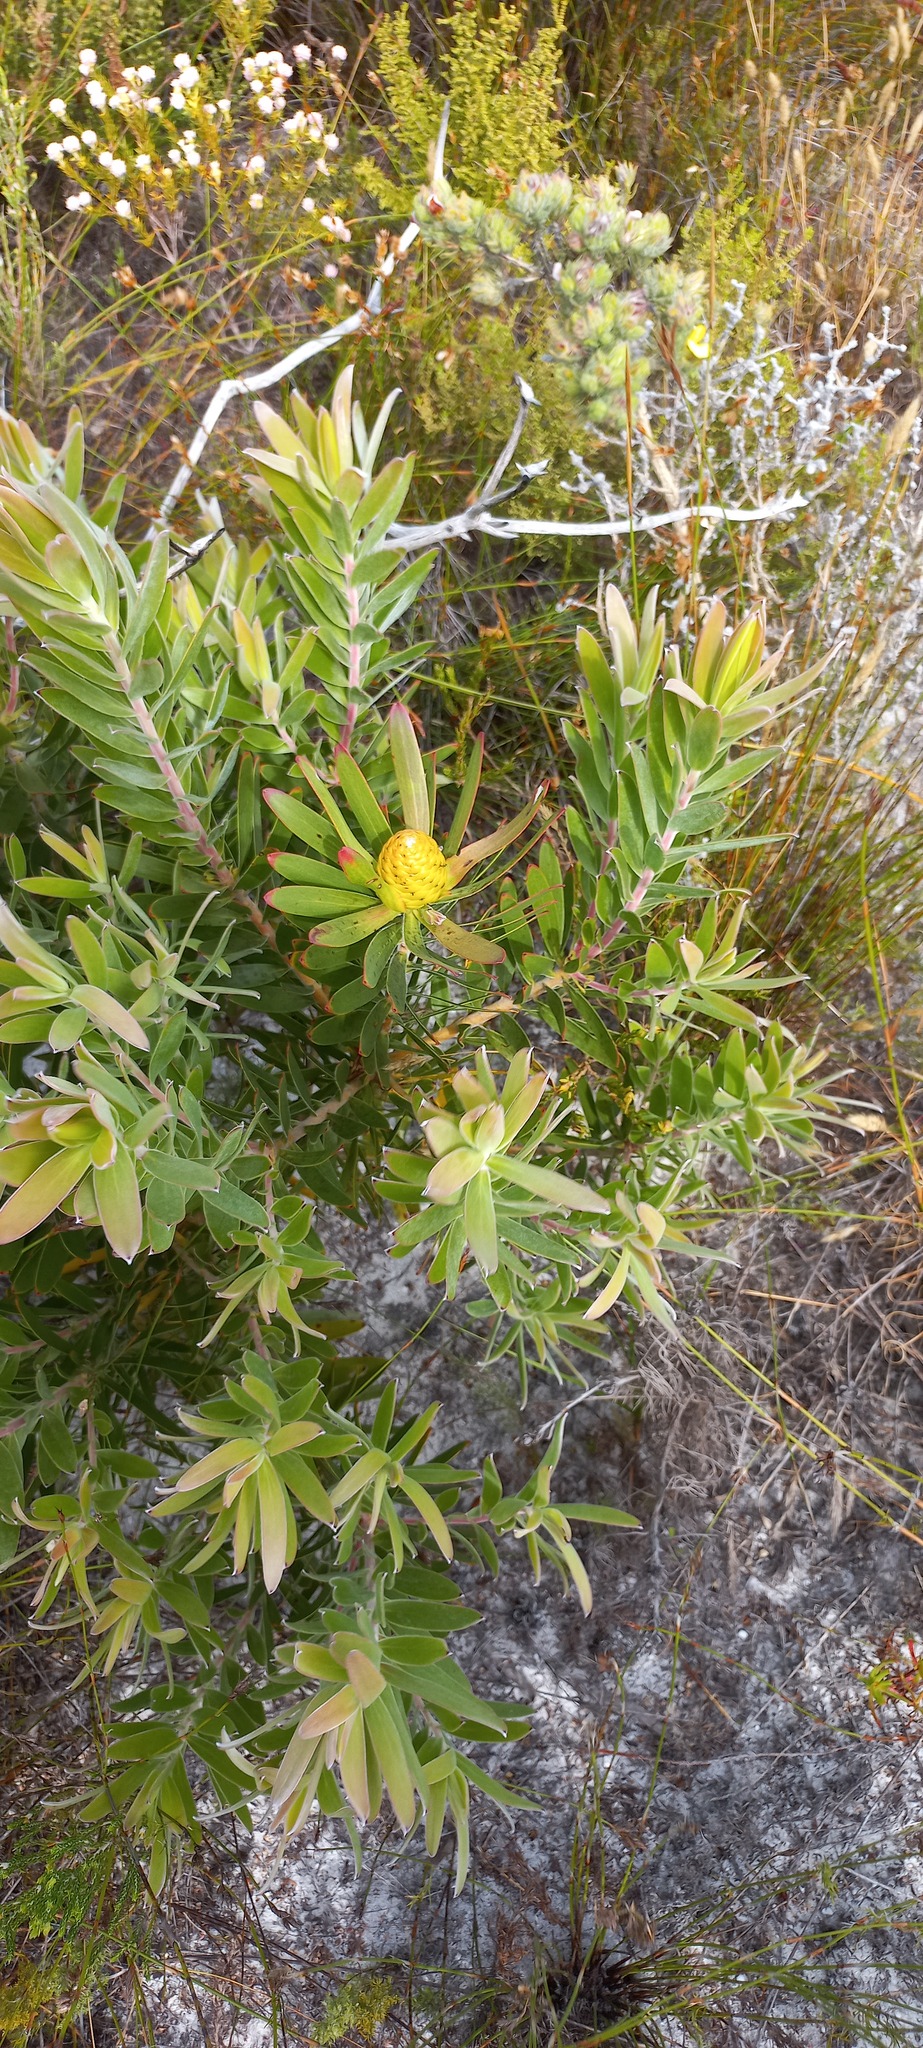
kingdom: Plantae
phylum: Tracheophyta
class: Magnoliopsida
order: Proteales
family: Proteaceae
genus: Leucadendron
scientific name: Leucadendron laureolum
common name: Golden sunshinebush
